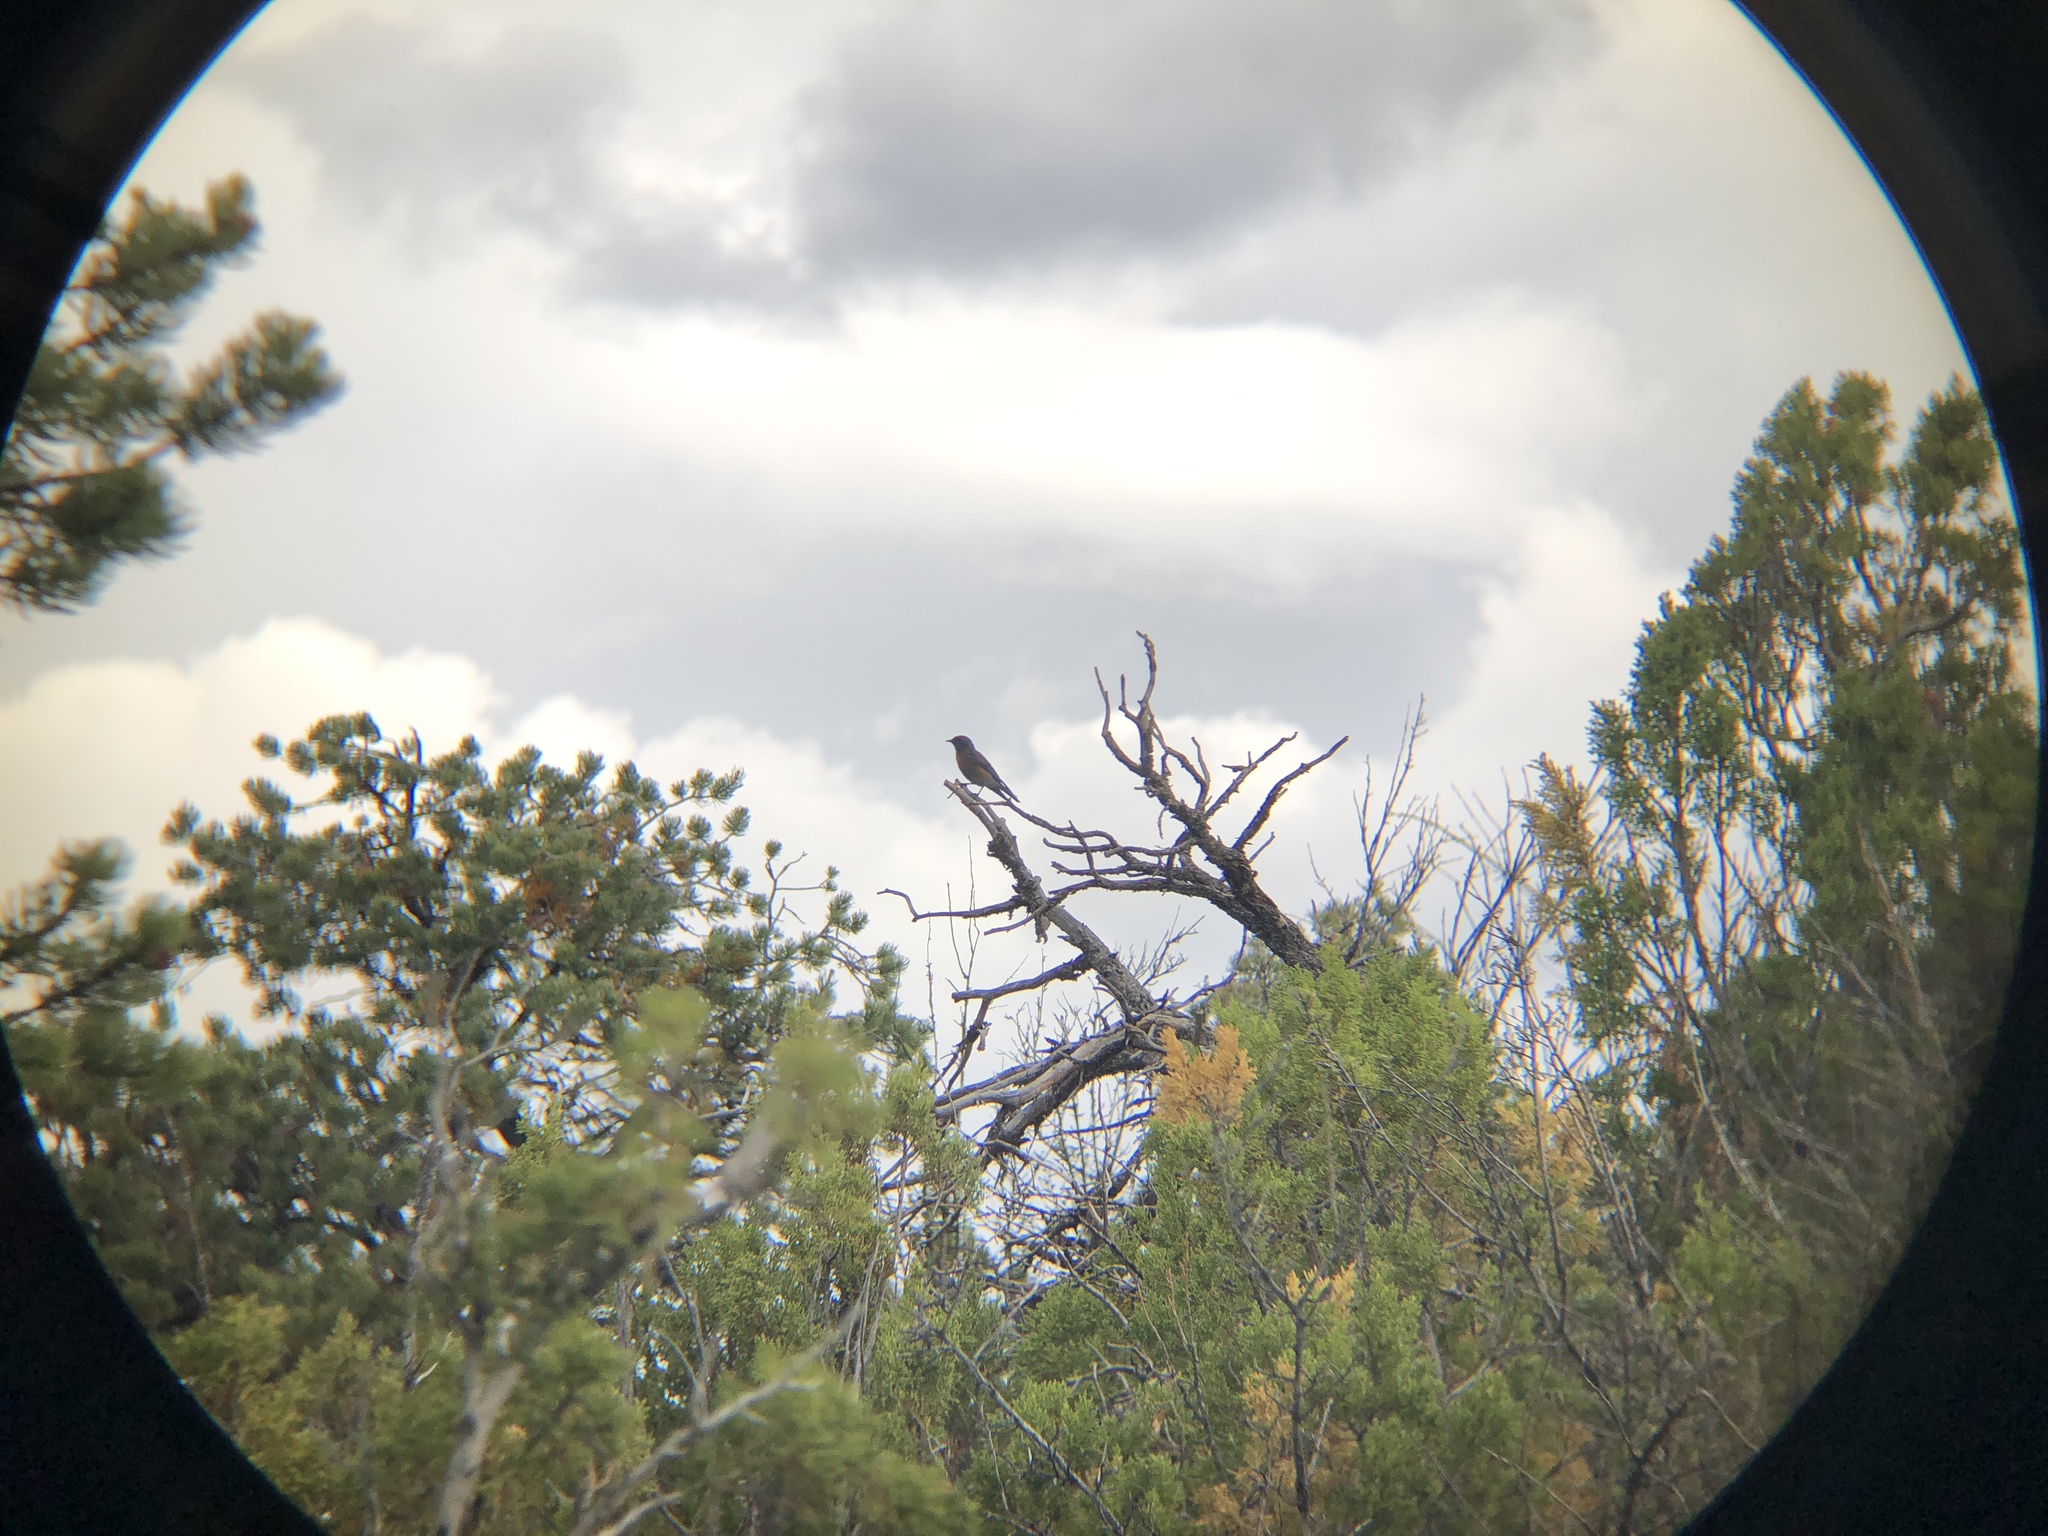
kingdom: Animalia
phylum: Chordata
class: Aves
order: Passeriformes
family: Turdidae
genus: Sialia
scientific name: Sialia mexicana
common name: Western bluebird
